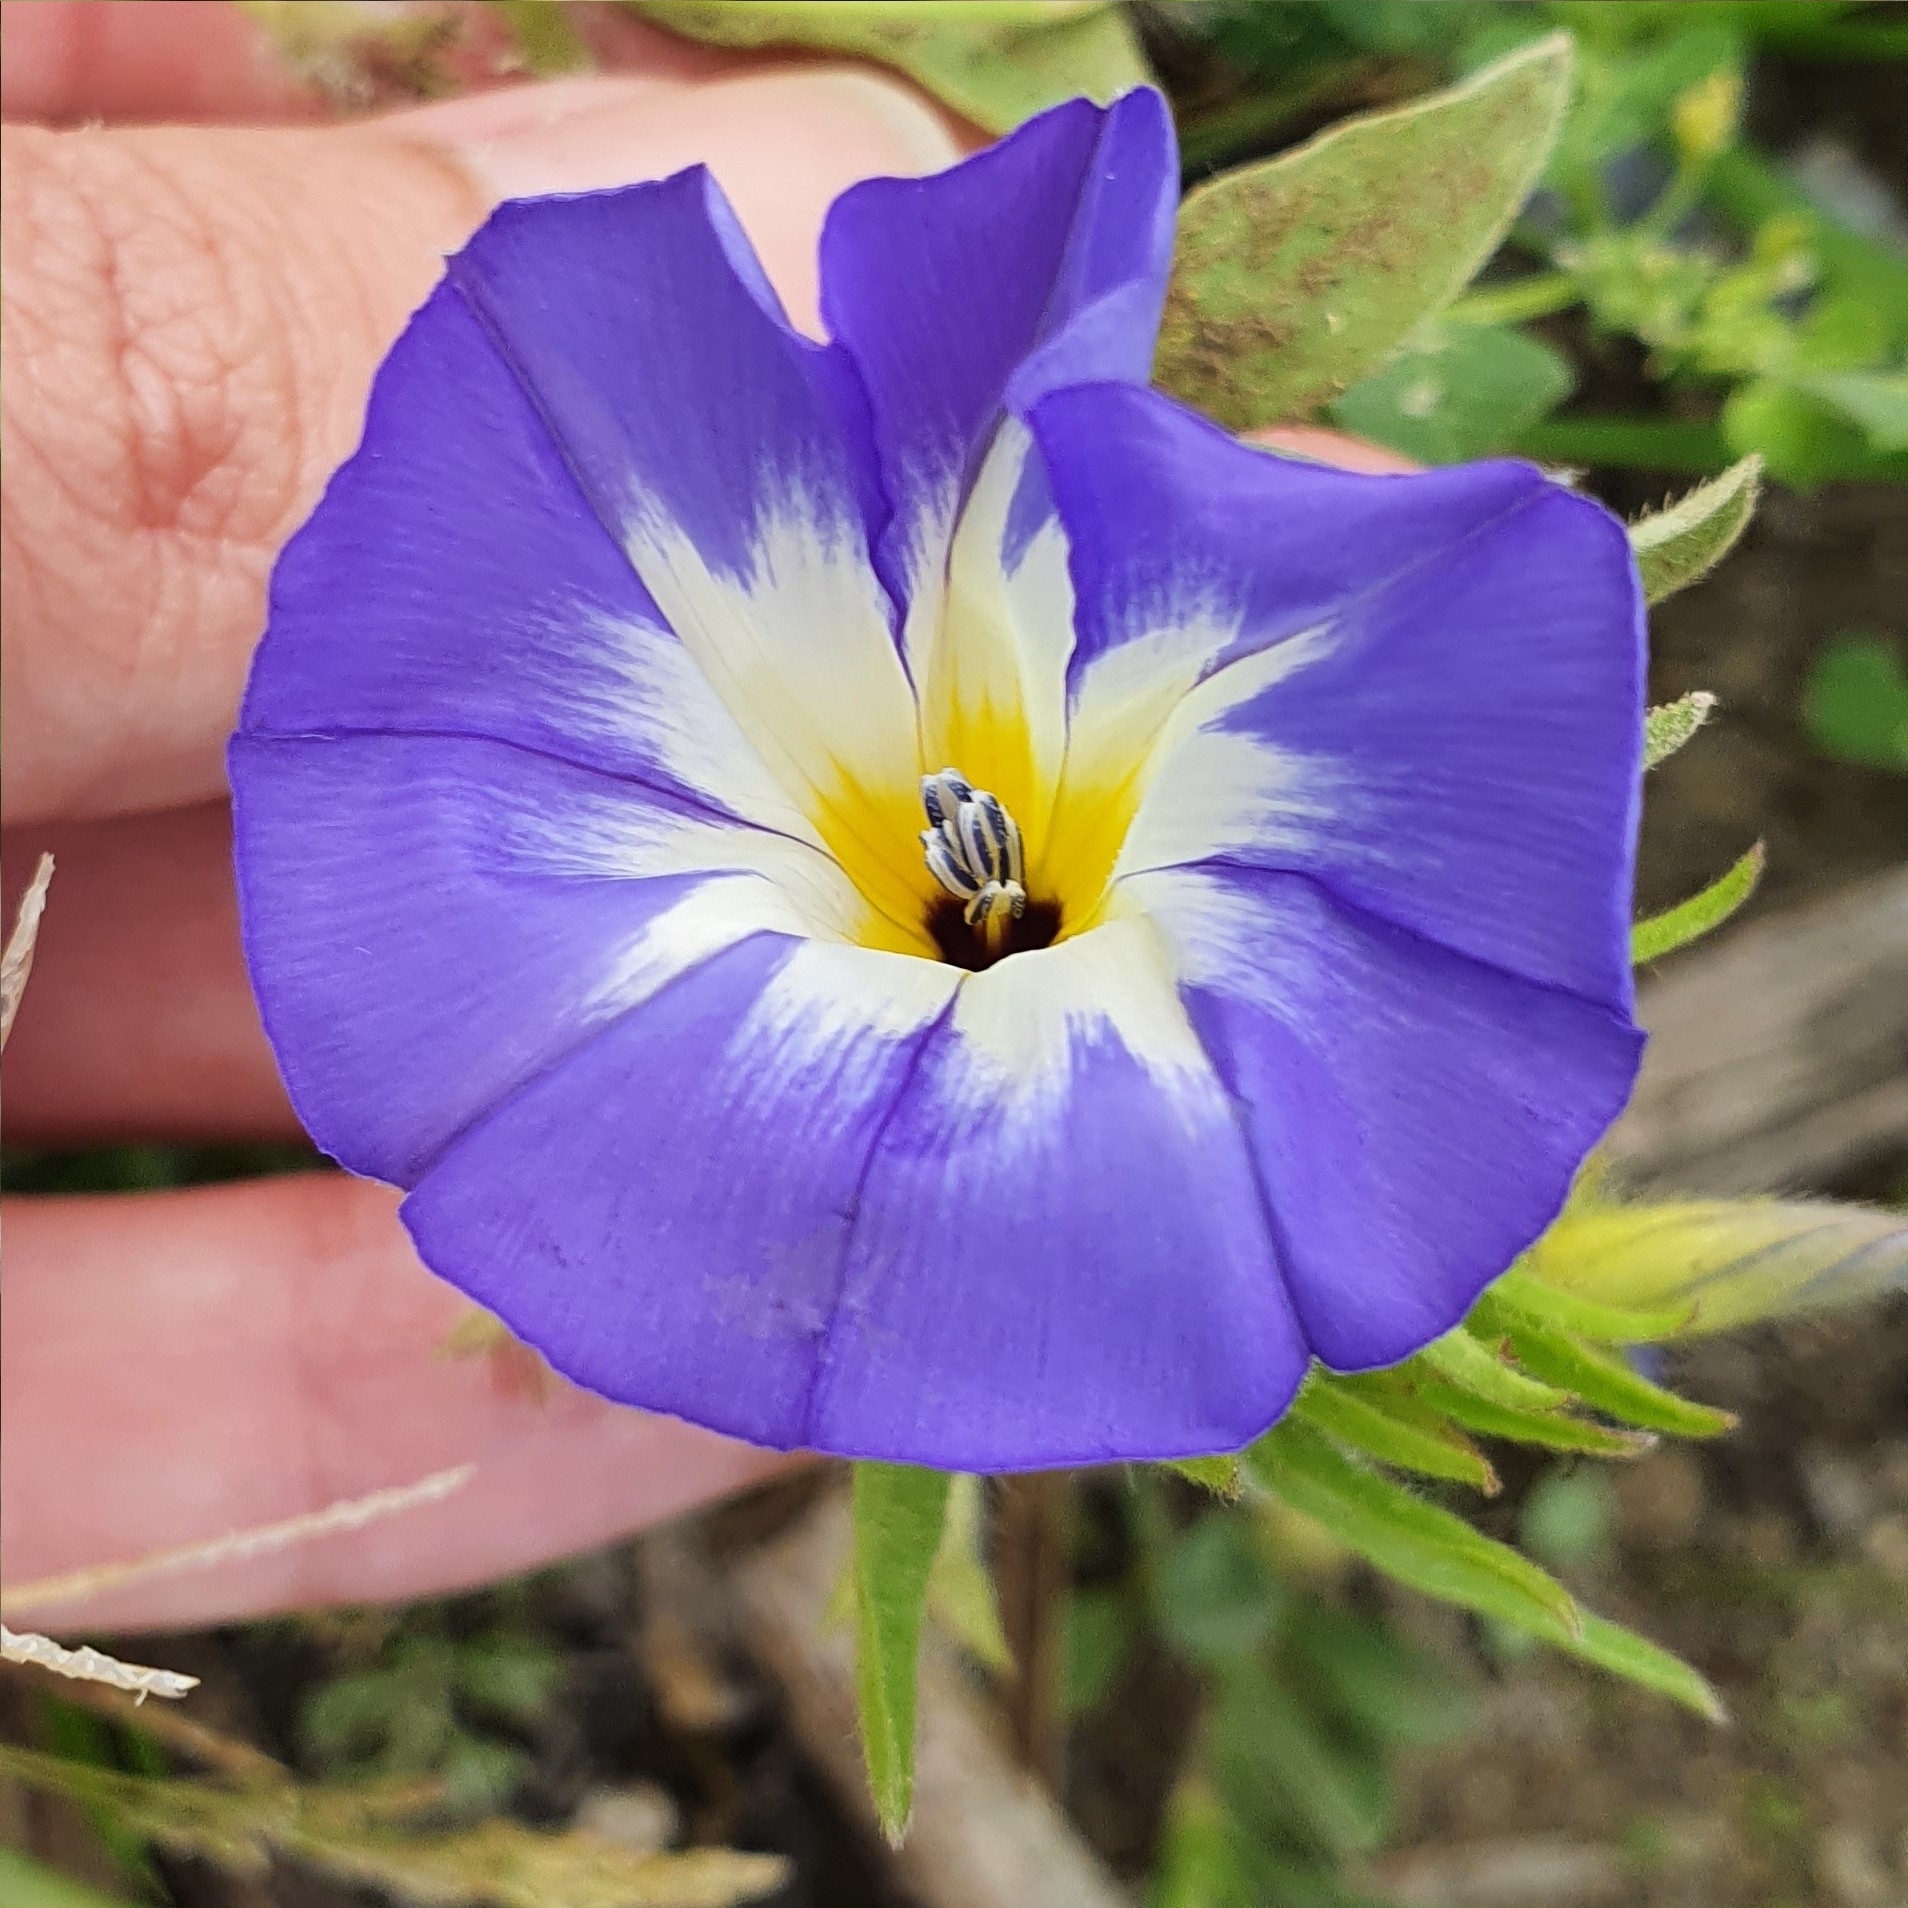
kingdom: Plantae
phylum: Tracheophyta
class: Magnoliopsida
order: Solanales
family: Convolvulaceae
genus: Convolvulus
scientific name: Convolvulus tricolor
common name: Dwarf morning-glory
